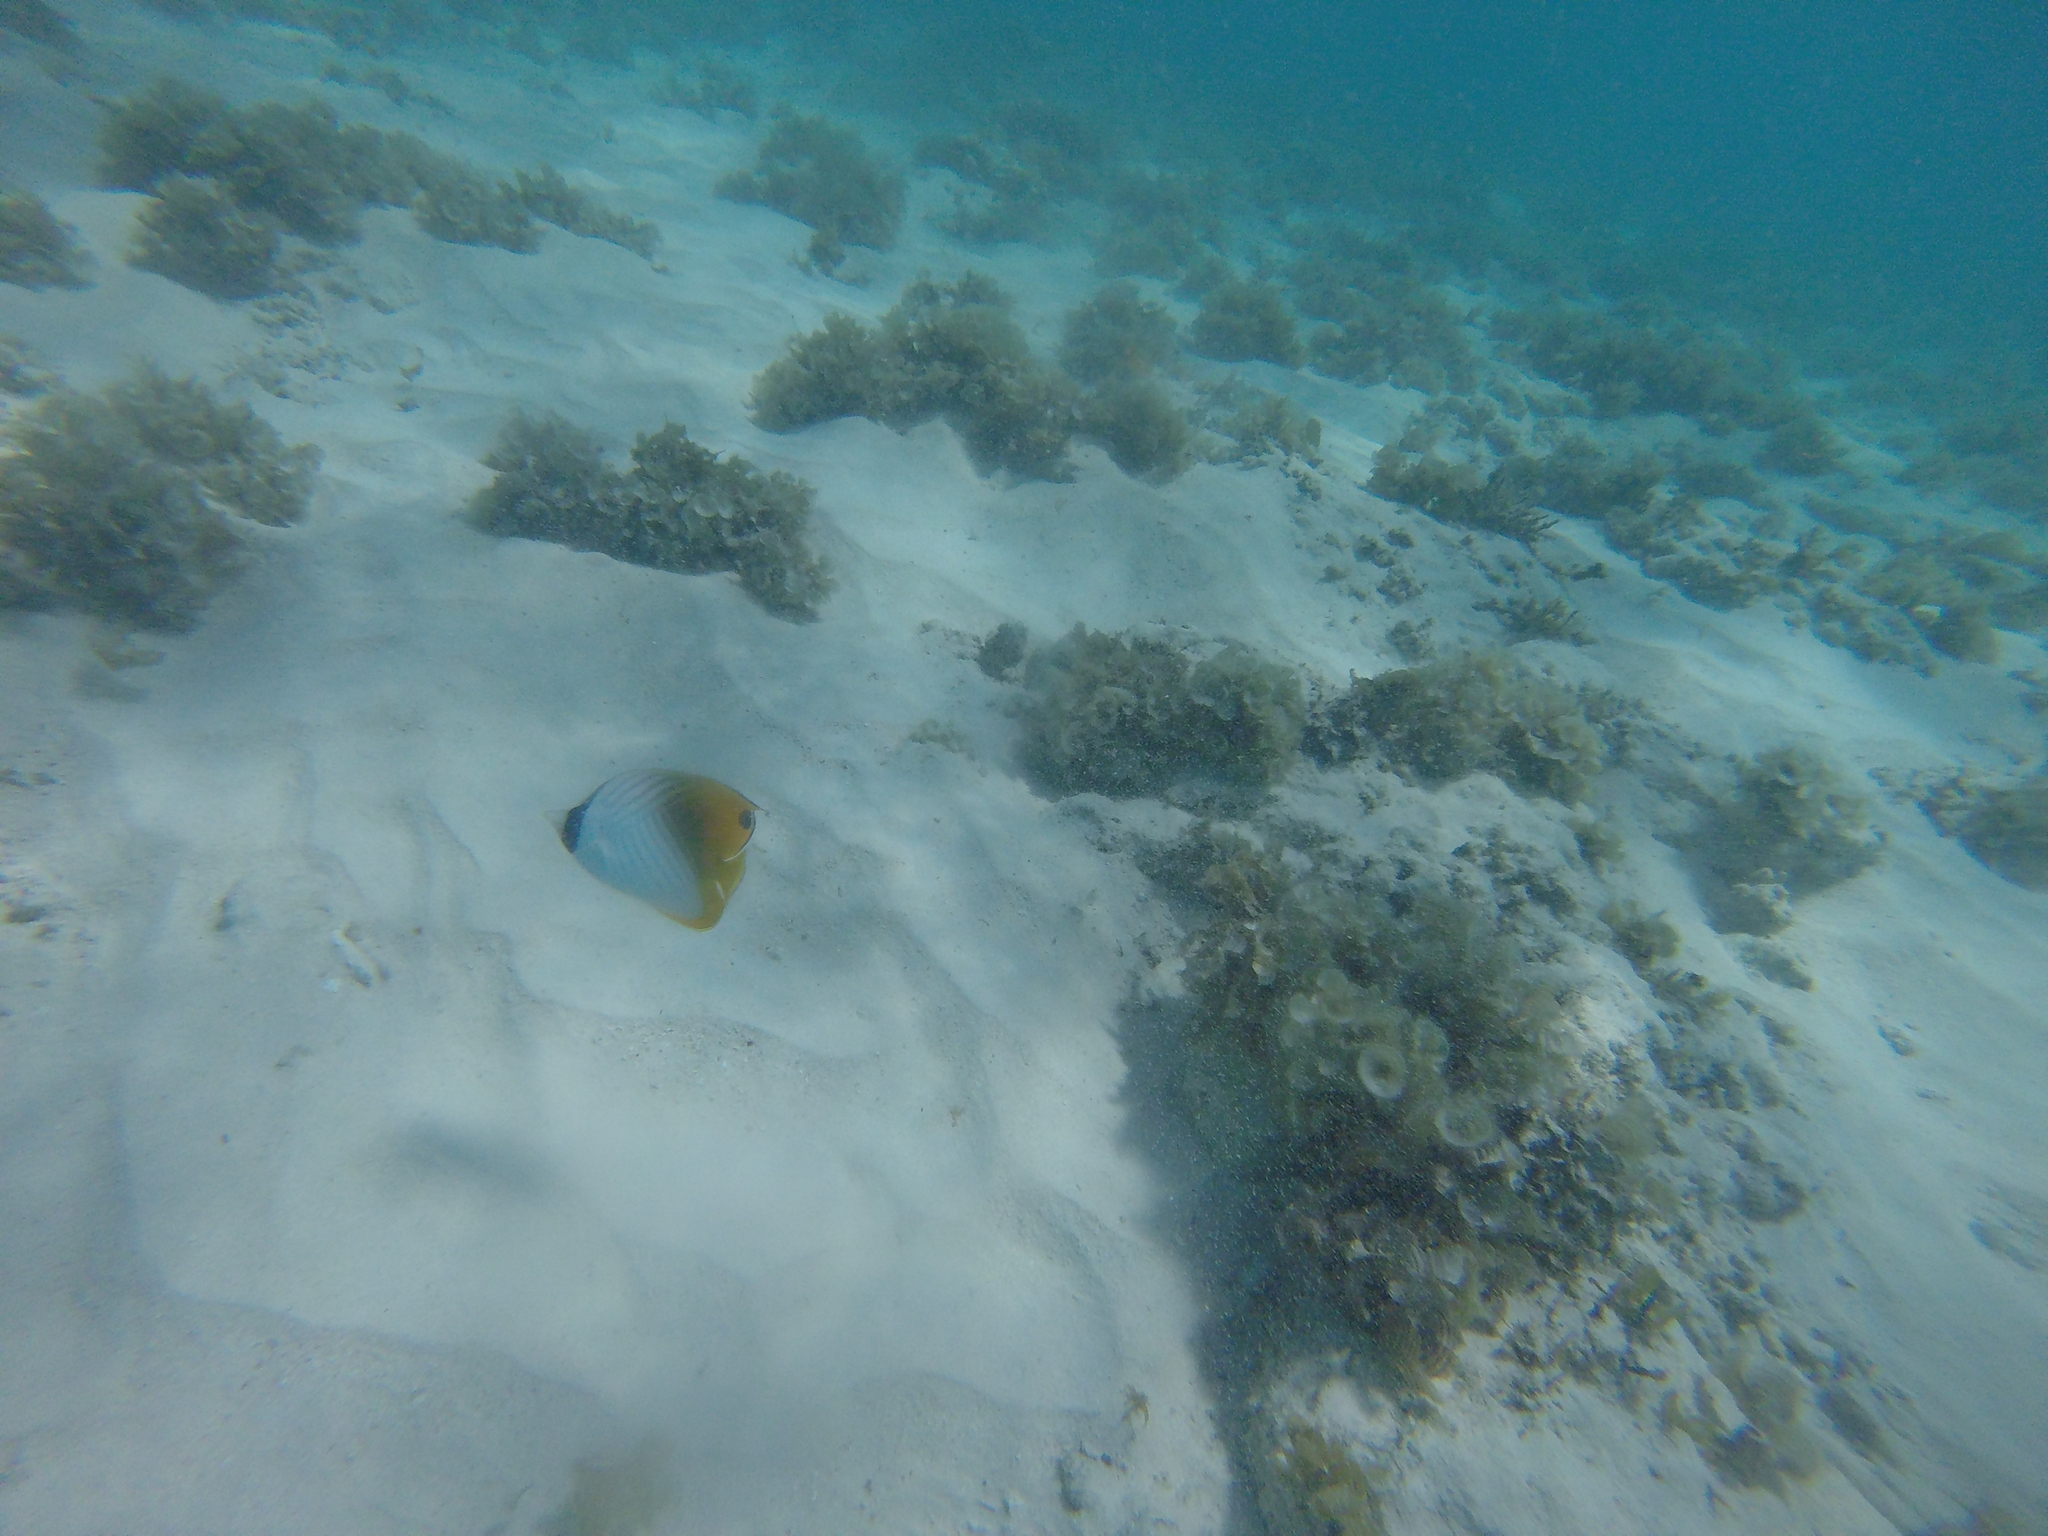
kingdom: Animalia
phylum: Chordata
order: Perciformes
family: Chaetodontidae
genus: Chaetodon
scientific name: Chaetodon auriga
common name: Threadfin butterflyfish
